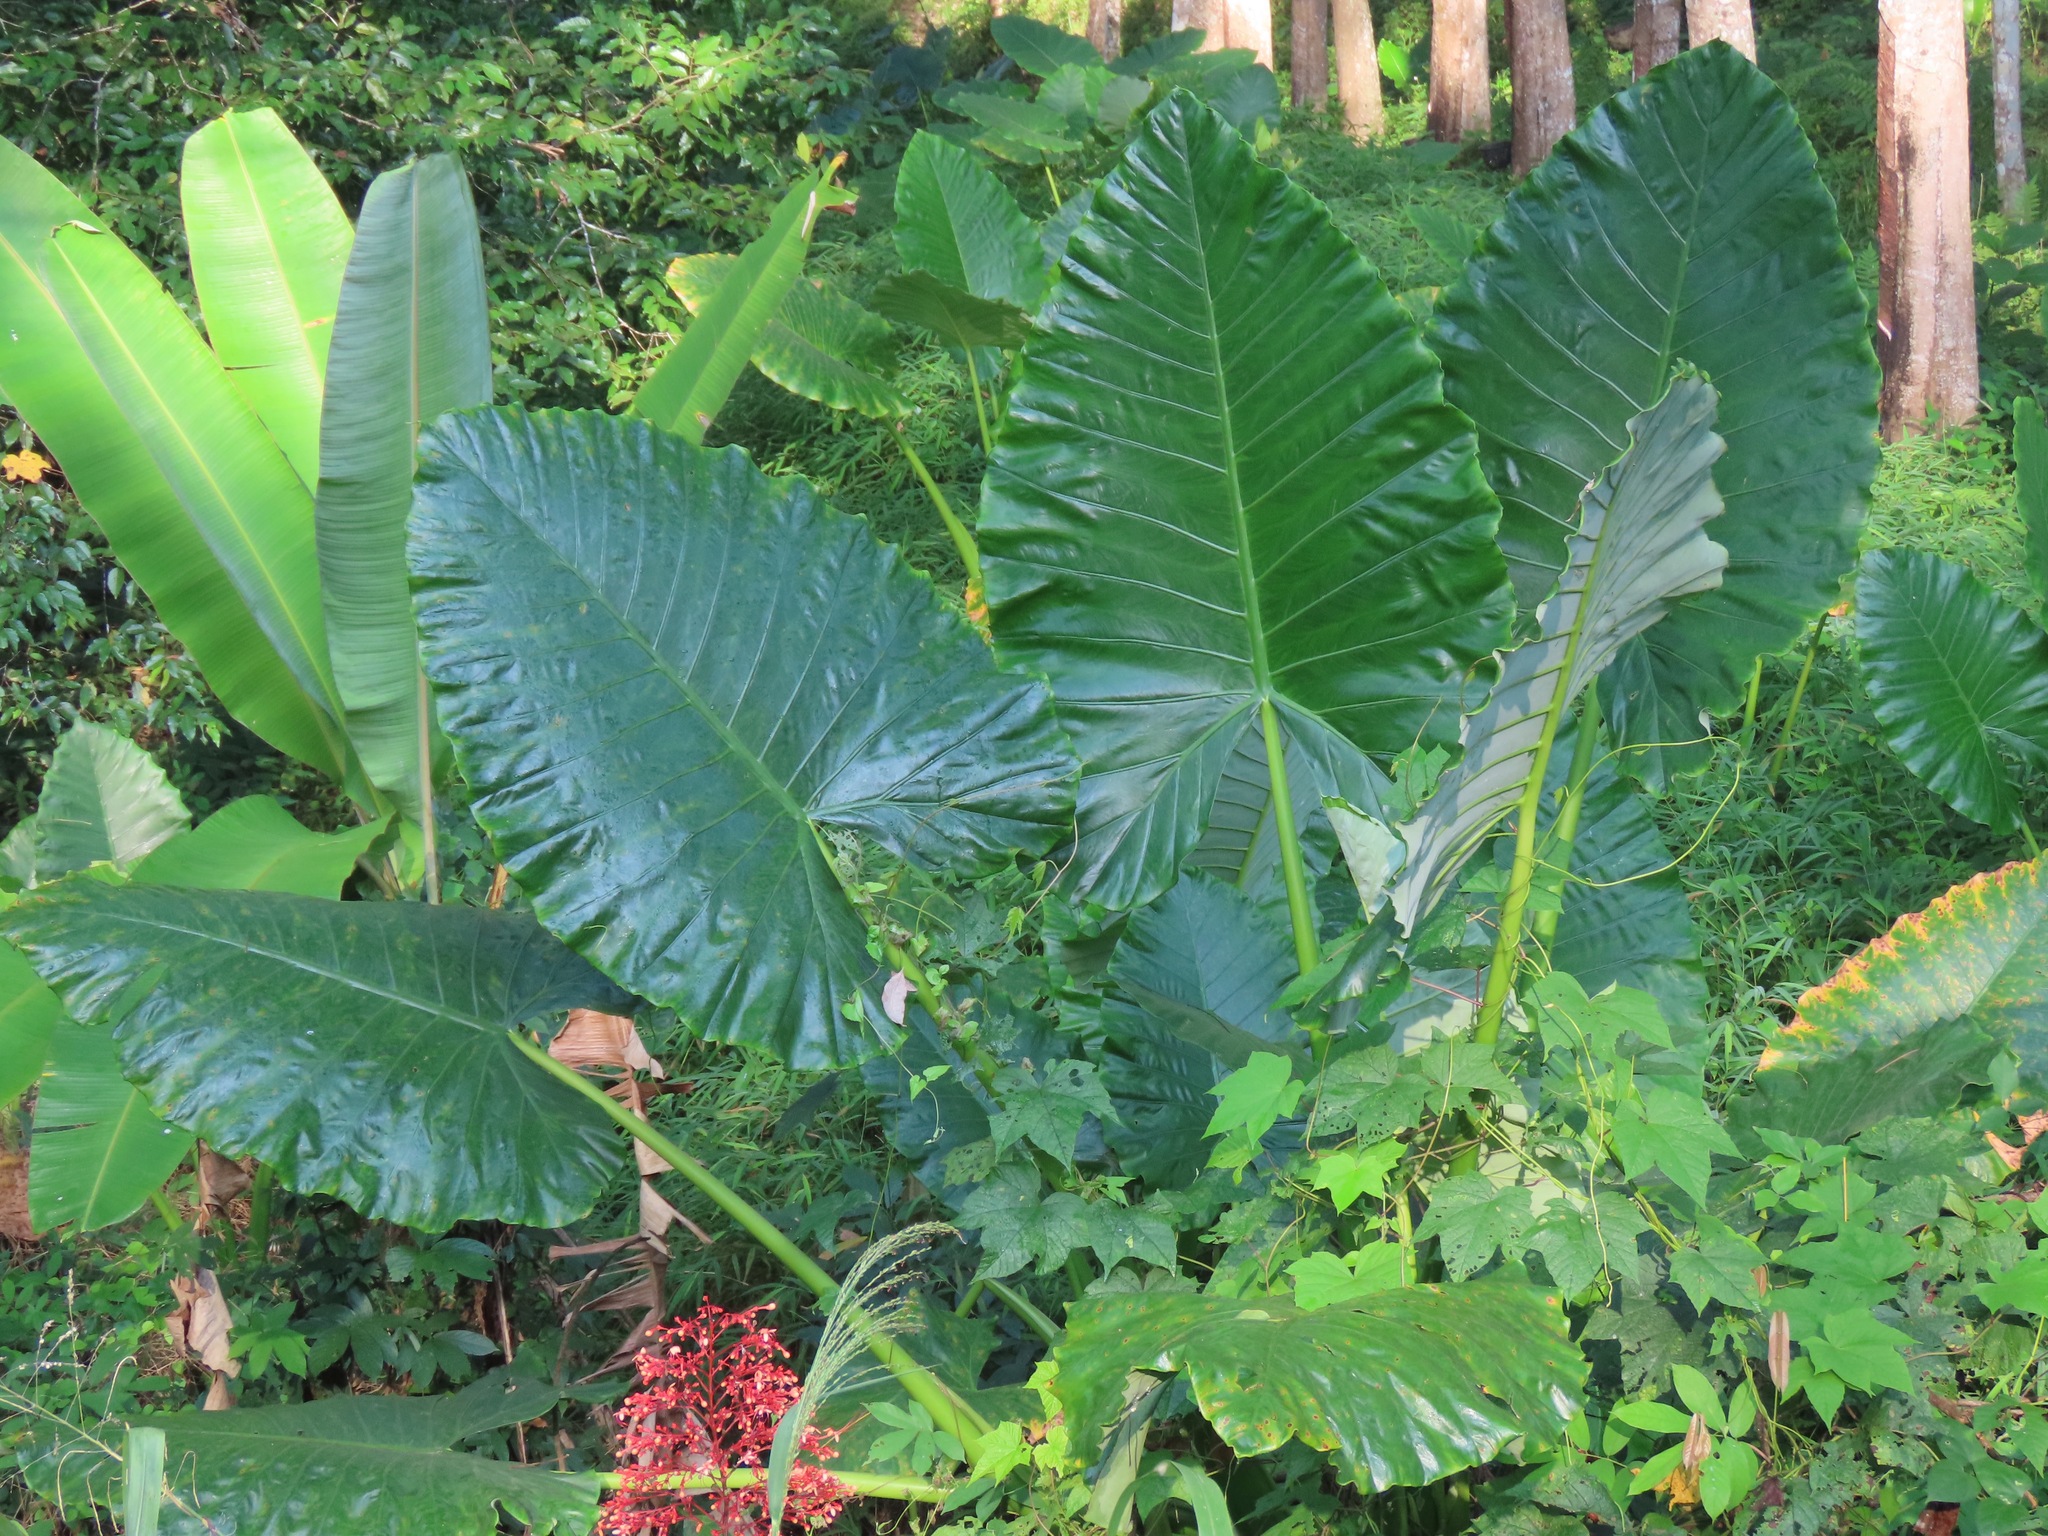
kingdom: Plantae
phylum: Tracheophyta
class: Liliopsida
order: Alismatales
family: Araceae
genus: Alocasia
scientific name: Alocasia macrorrhizos
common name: Giant taro
